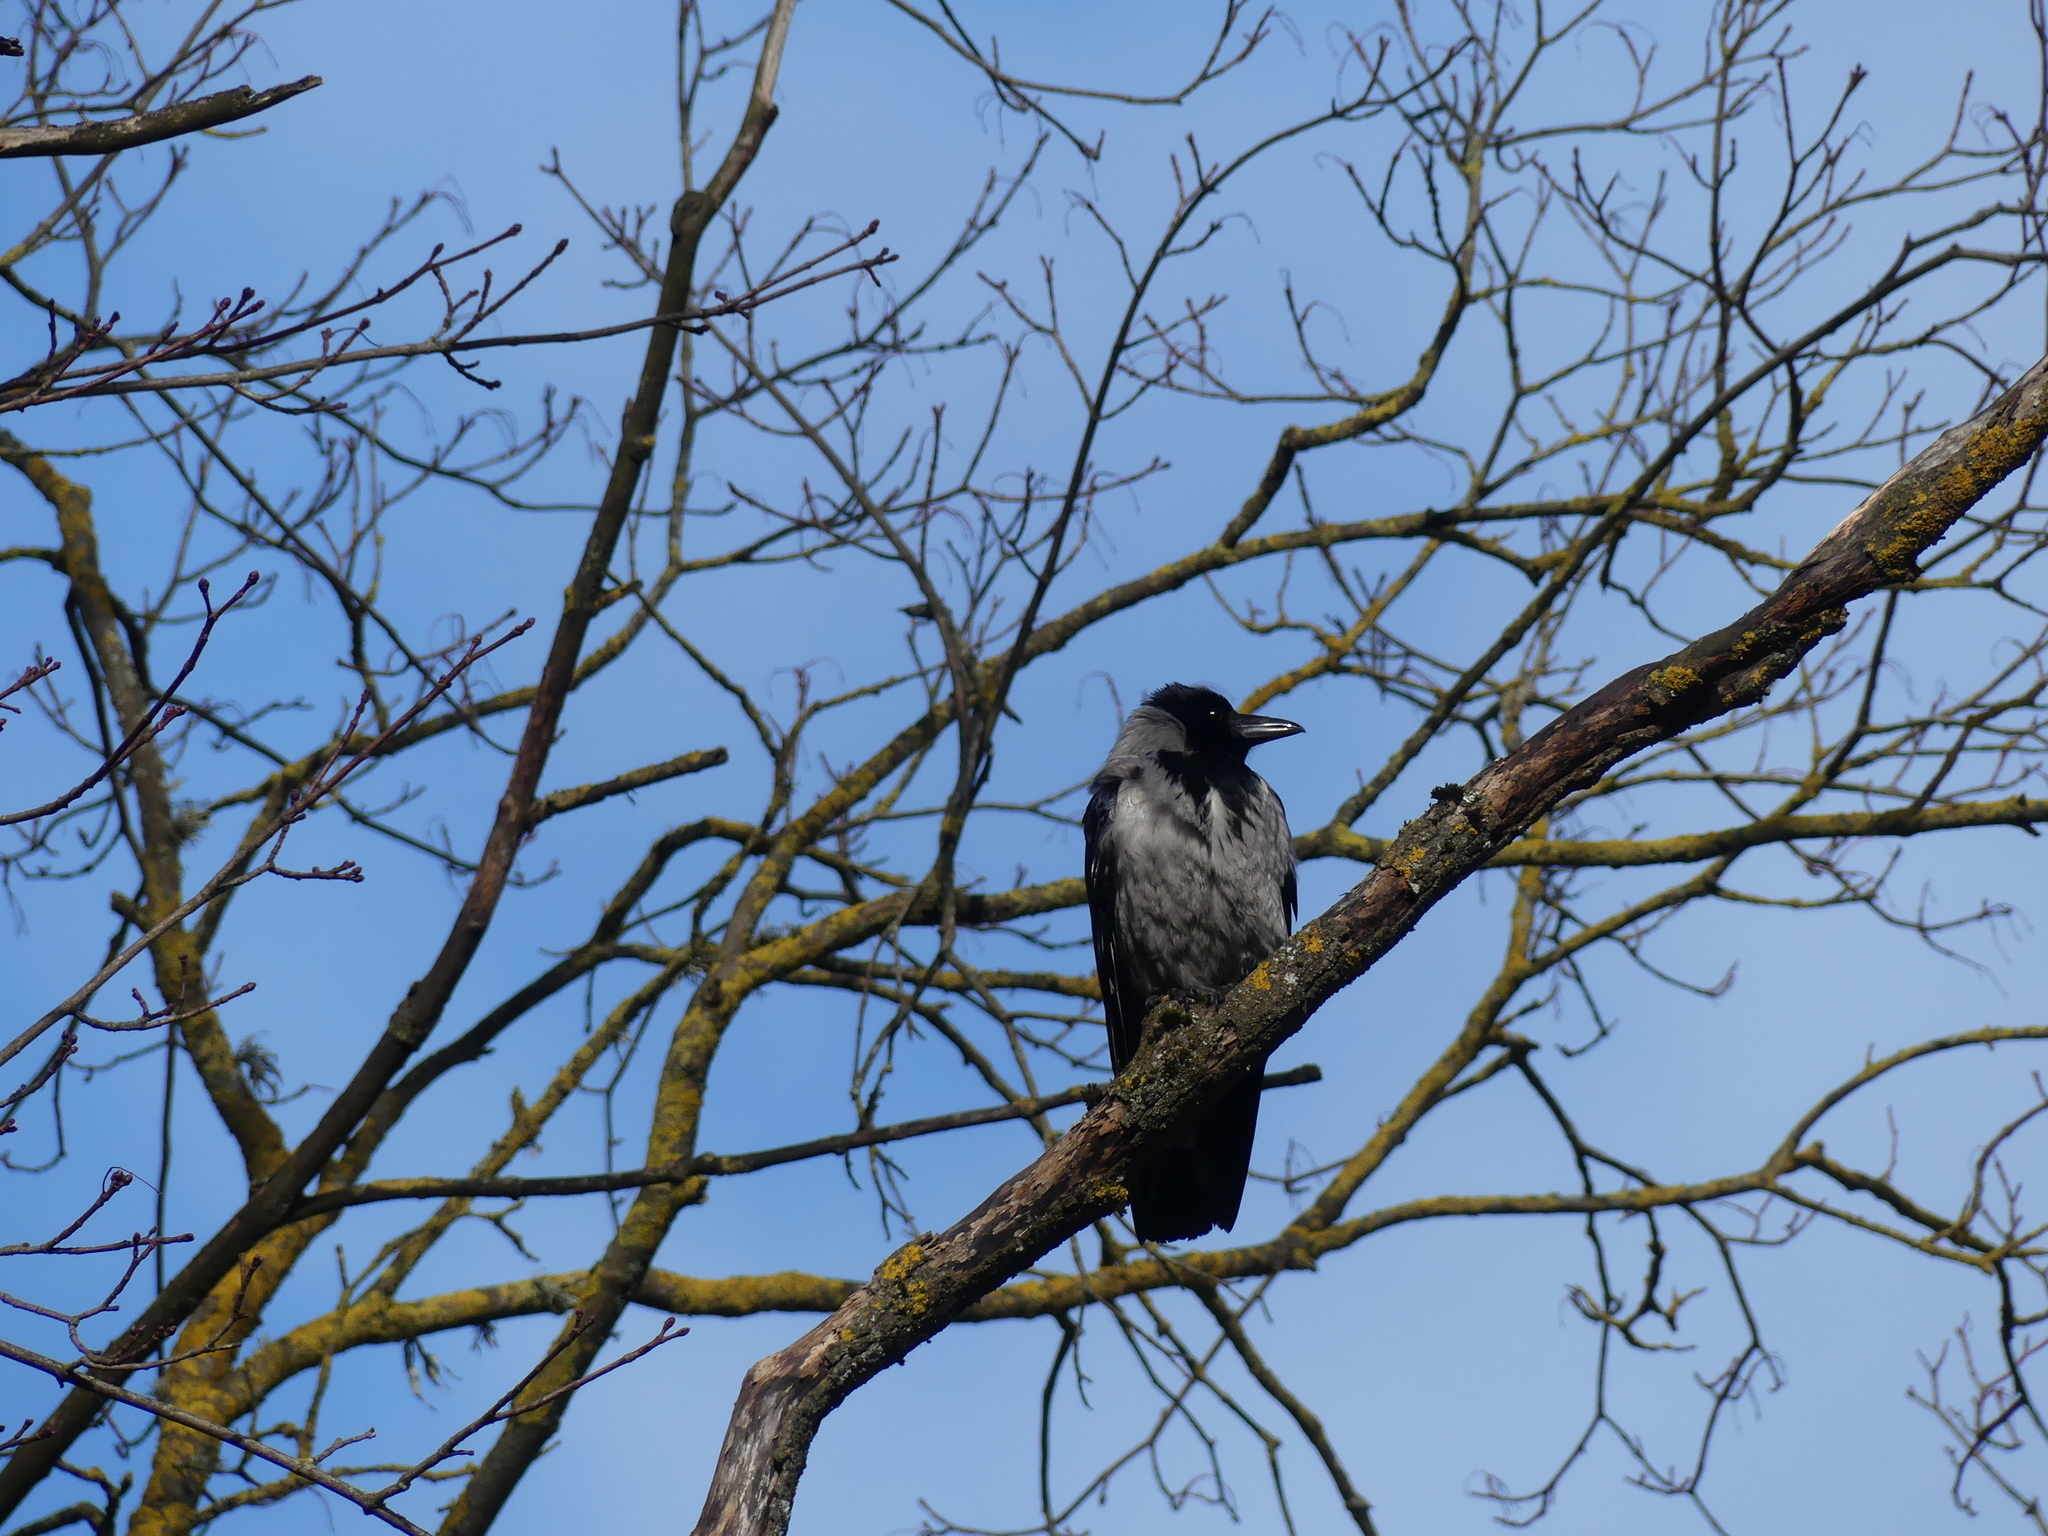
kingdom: Animalia
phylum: Chordata
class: Aves
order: Passeriformes
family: Corvidae
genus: Corvus
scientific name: Corvus cornix
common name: Hooded crow
